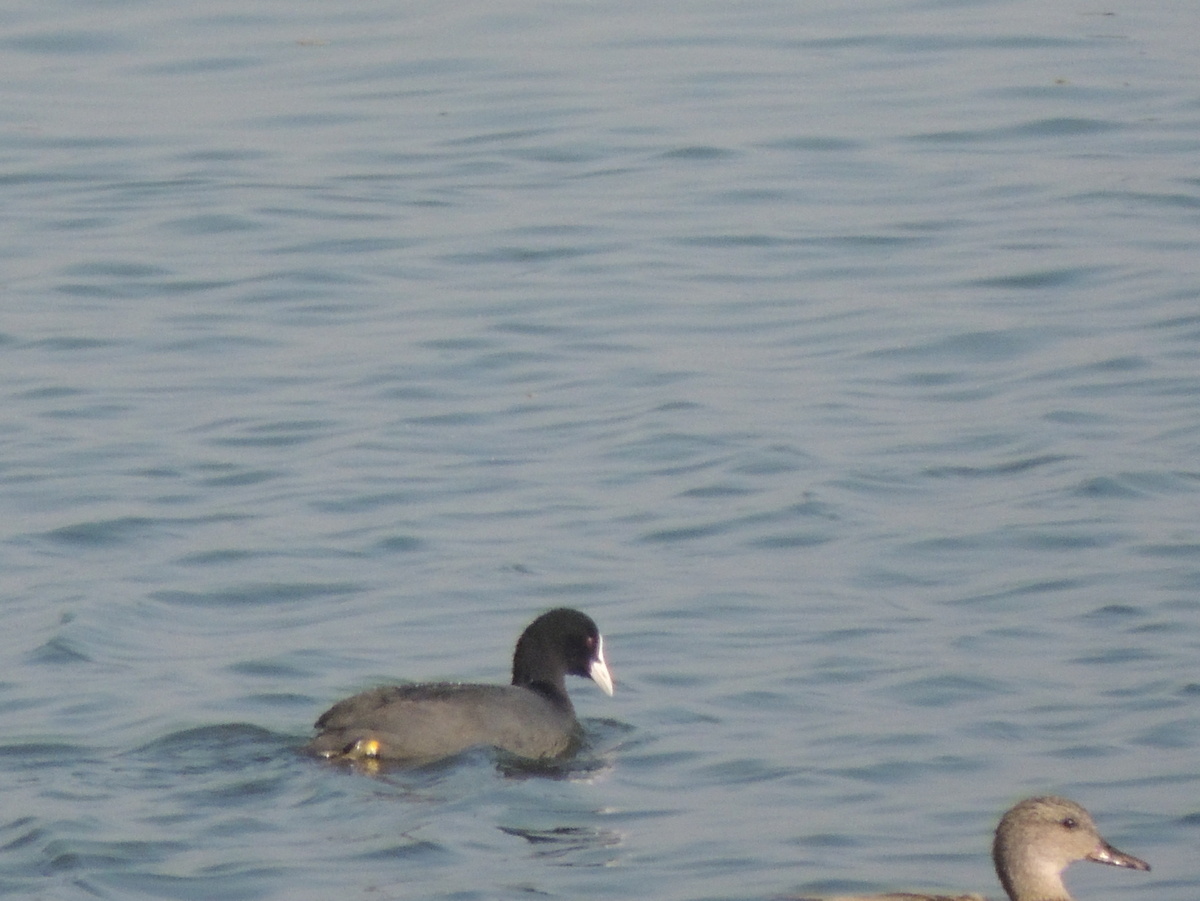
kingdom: Animalia
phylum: Chordata
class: Aves
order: Gruiformes
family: Rallidae
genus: Fulica
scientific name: Fulica atra
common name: Eurasian coot
